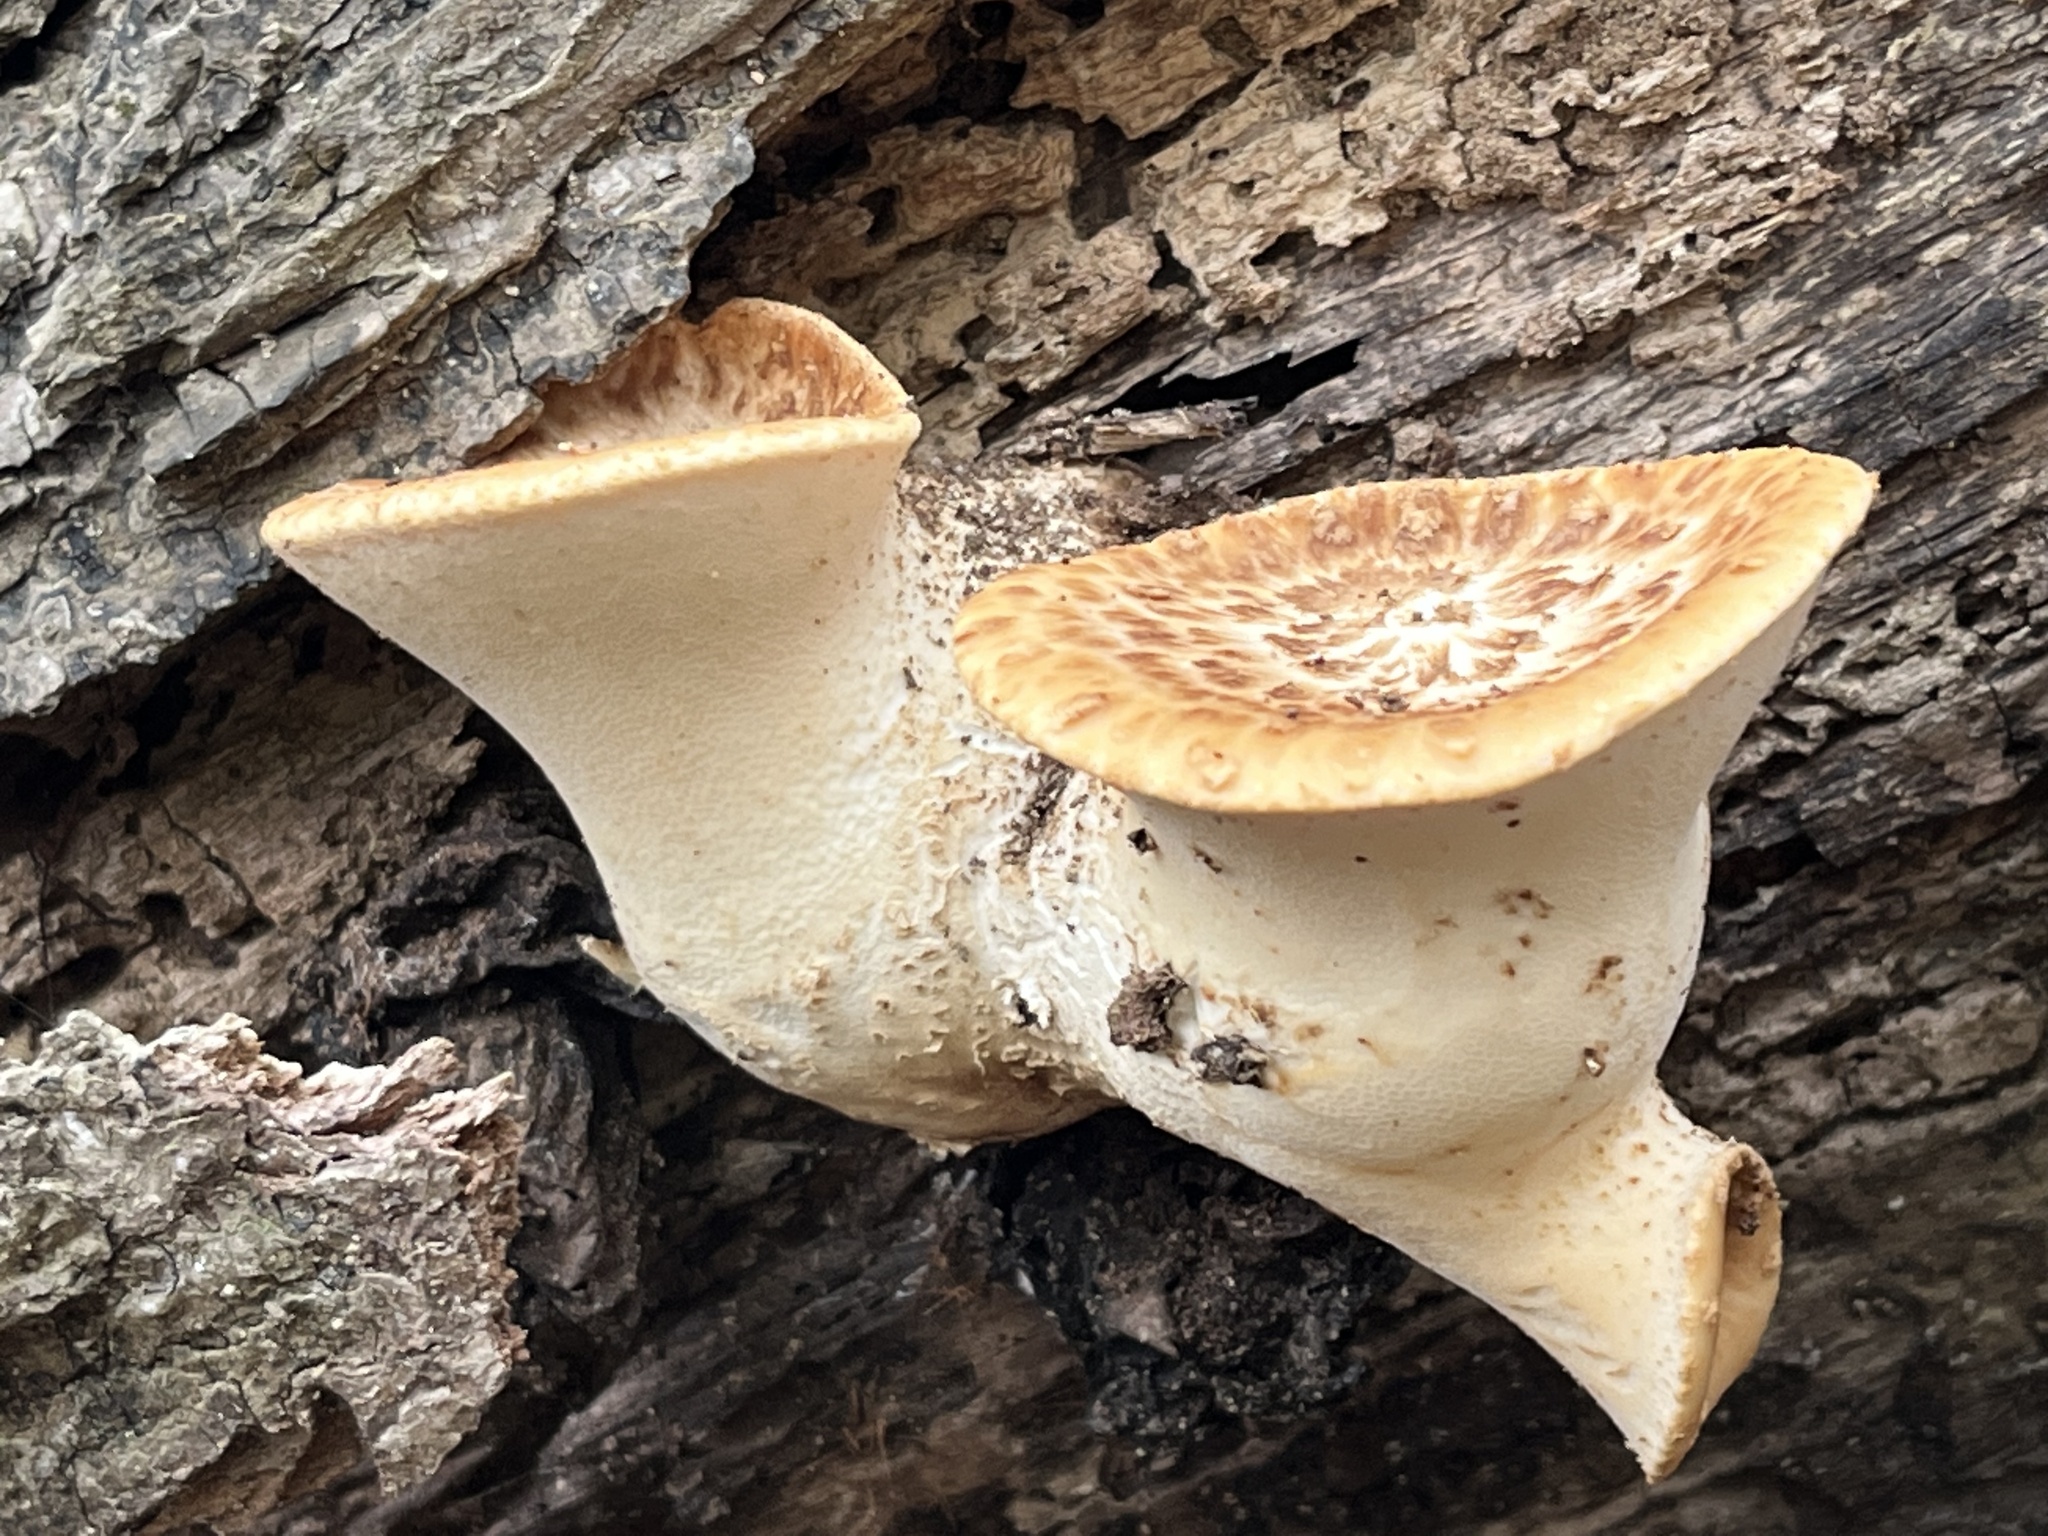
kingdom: Fungi
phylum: Basidiomycota
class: Agaricomycetes
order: Polyporales
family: Polyporaceae
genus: Cerioporus
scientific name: Cerioporus squamosus
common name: Dryad's saddle
